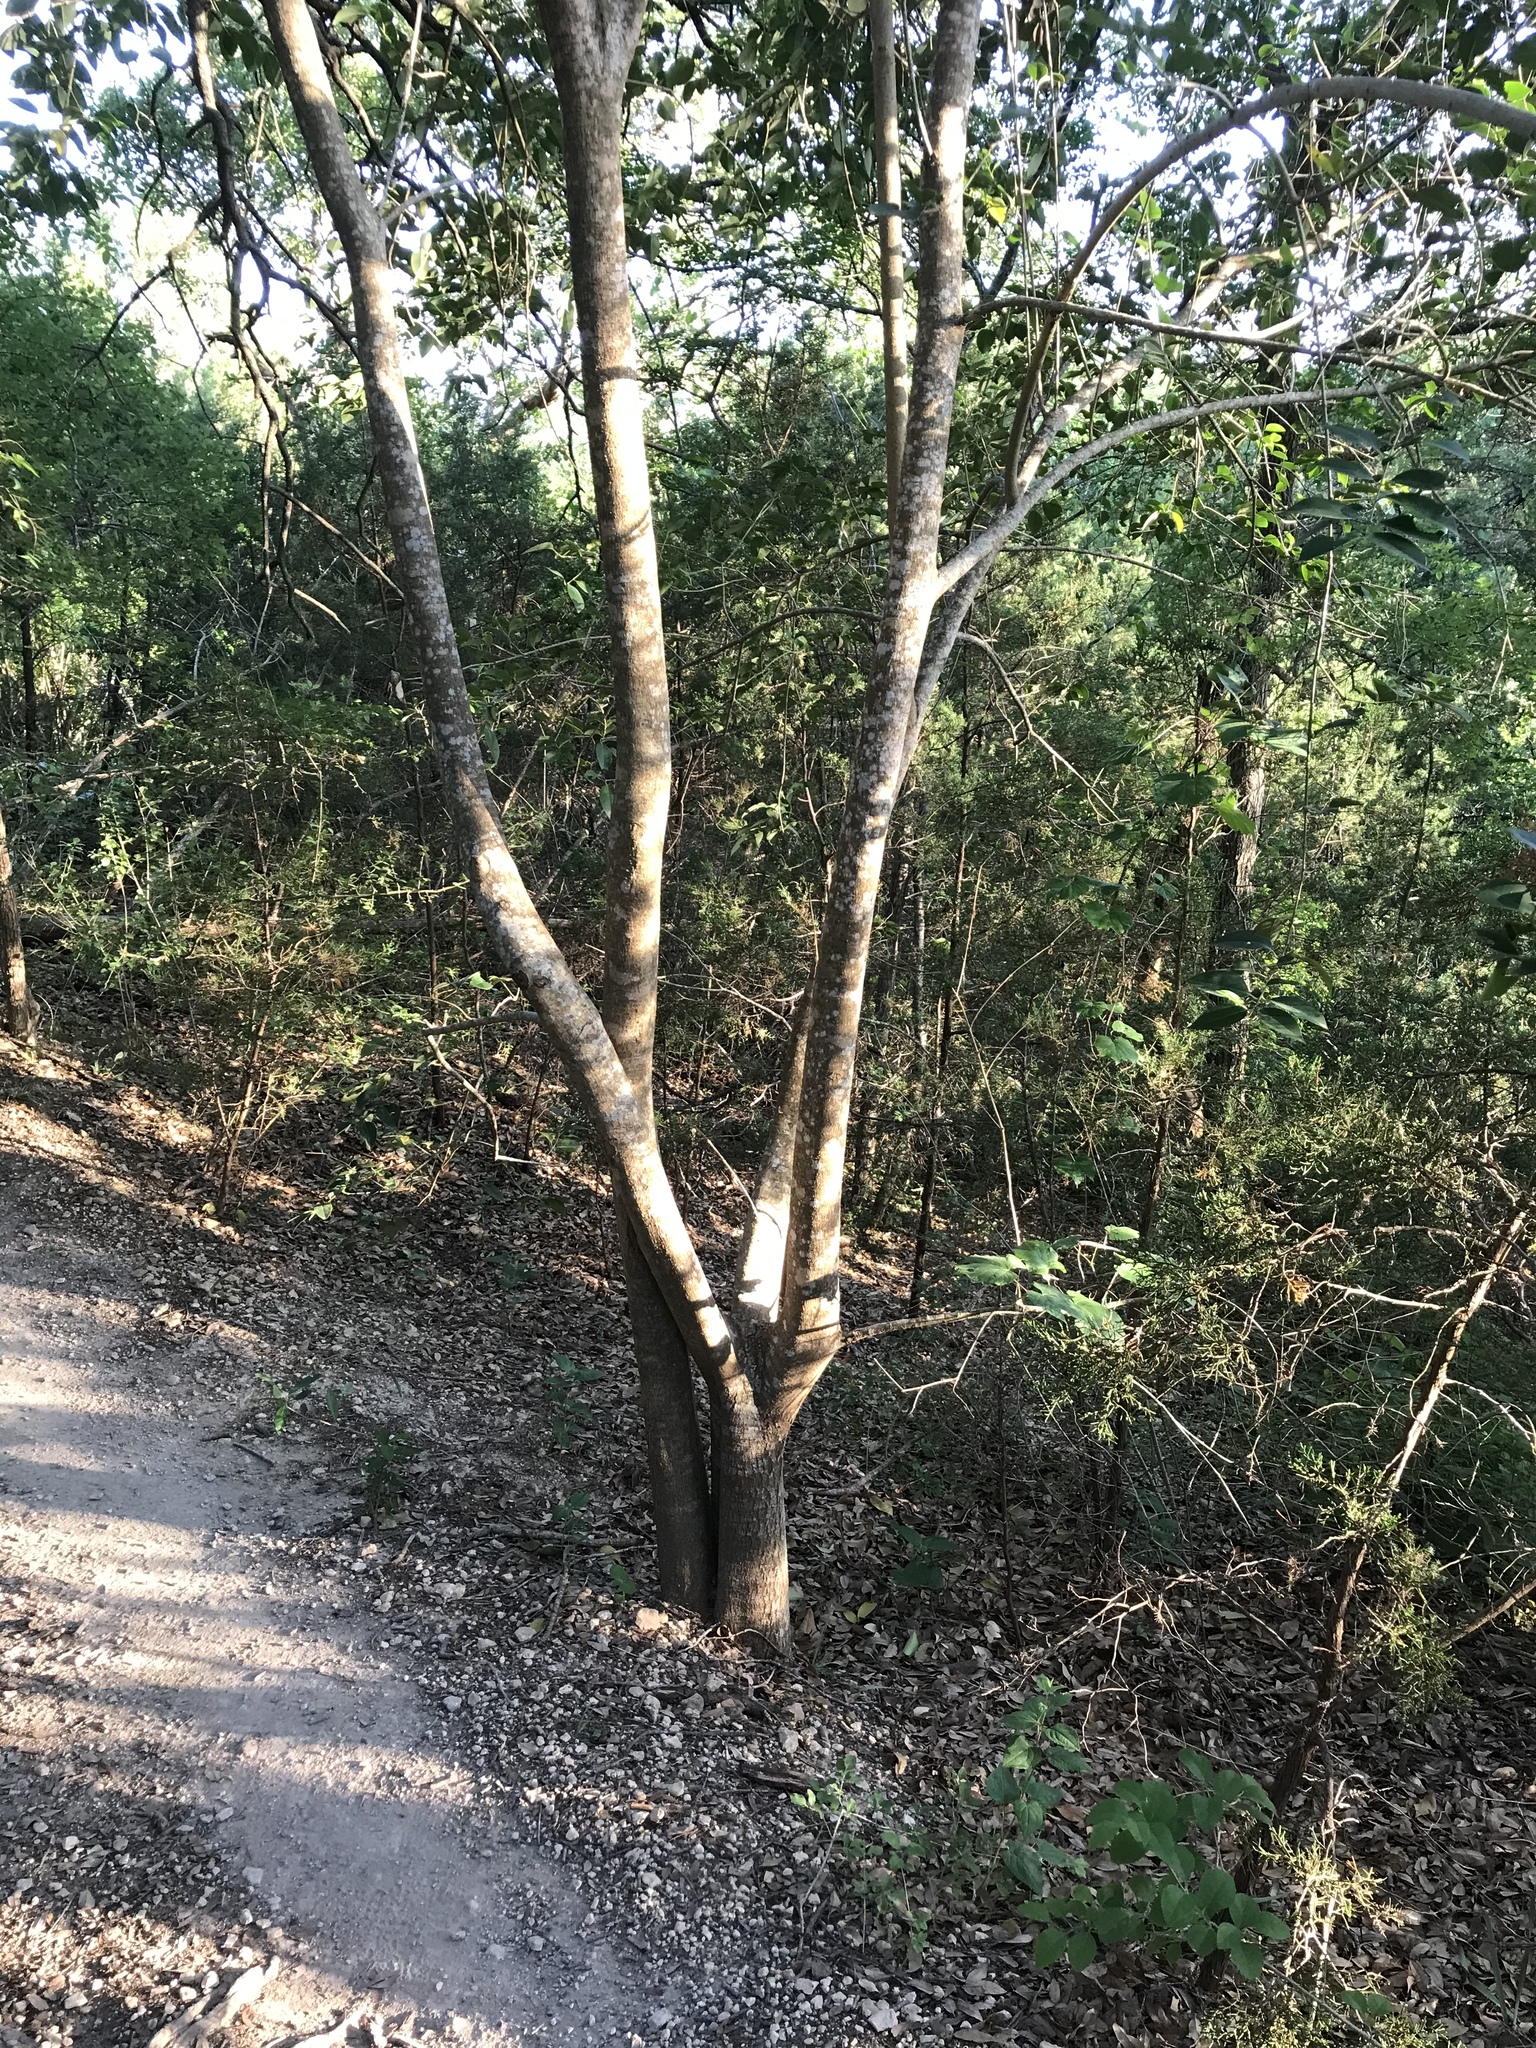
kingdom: Plantae
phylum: Tracheophyta
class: Magnoliopsida
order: Lamiales
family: Oleaceae
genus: Ligustrum
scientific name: Ligustrum lucidum
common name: Glossy privet
